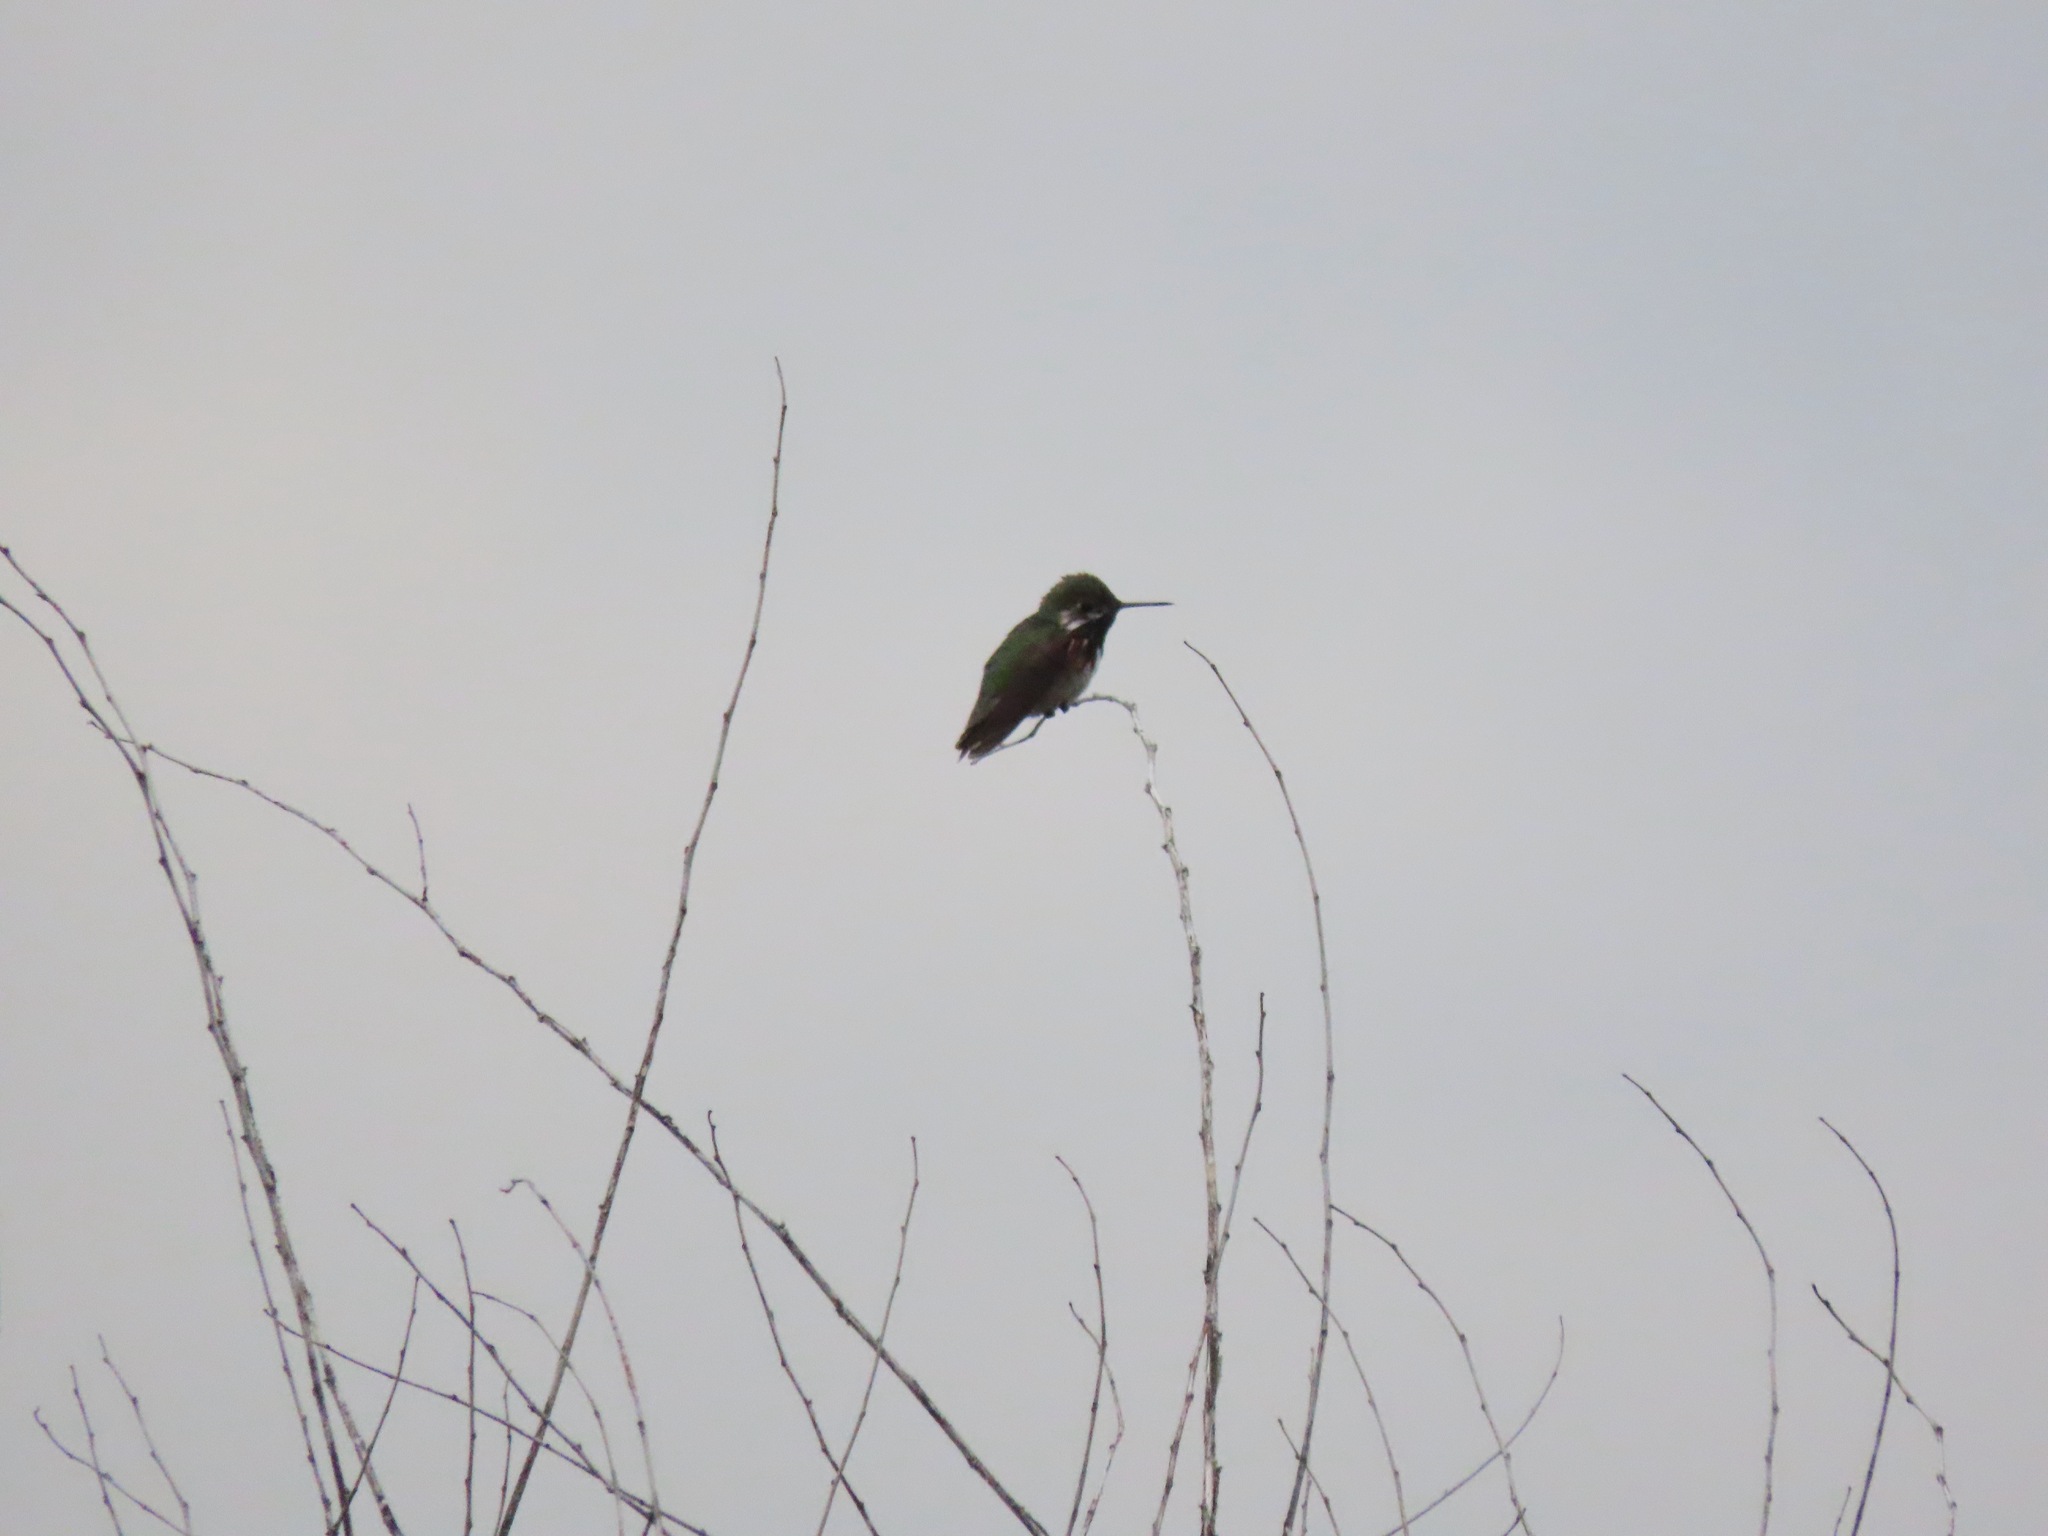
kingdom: Animalia
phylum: Chordata
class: Aves
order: Apodiformes
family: Trochilidae
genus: Selasphorus
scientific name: Selasphorus calliope
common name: Calliope hummingbird
